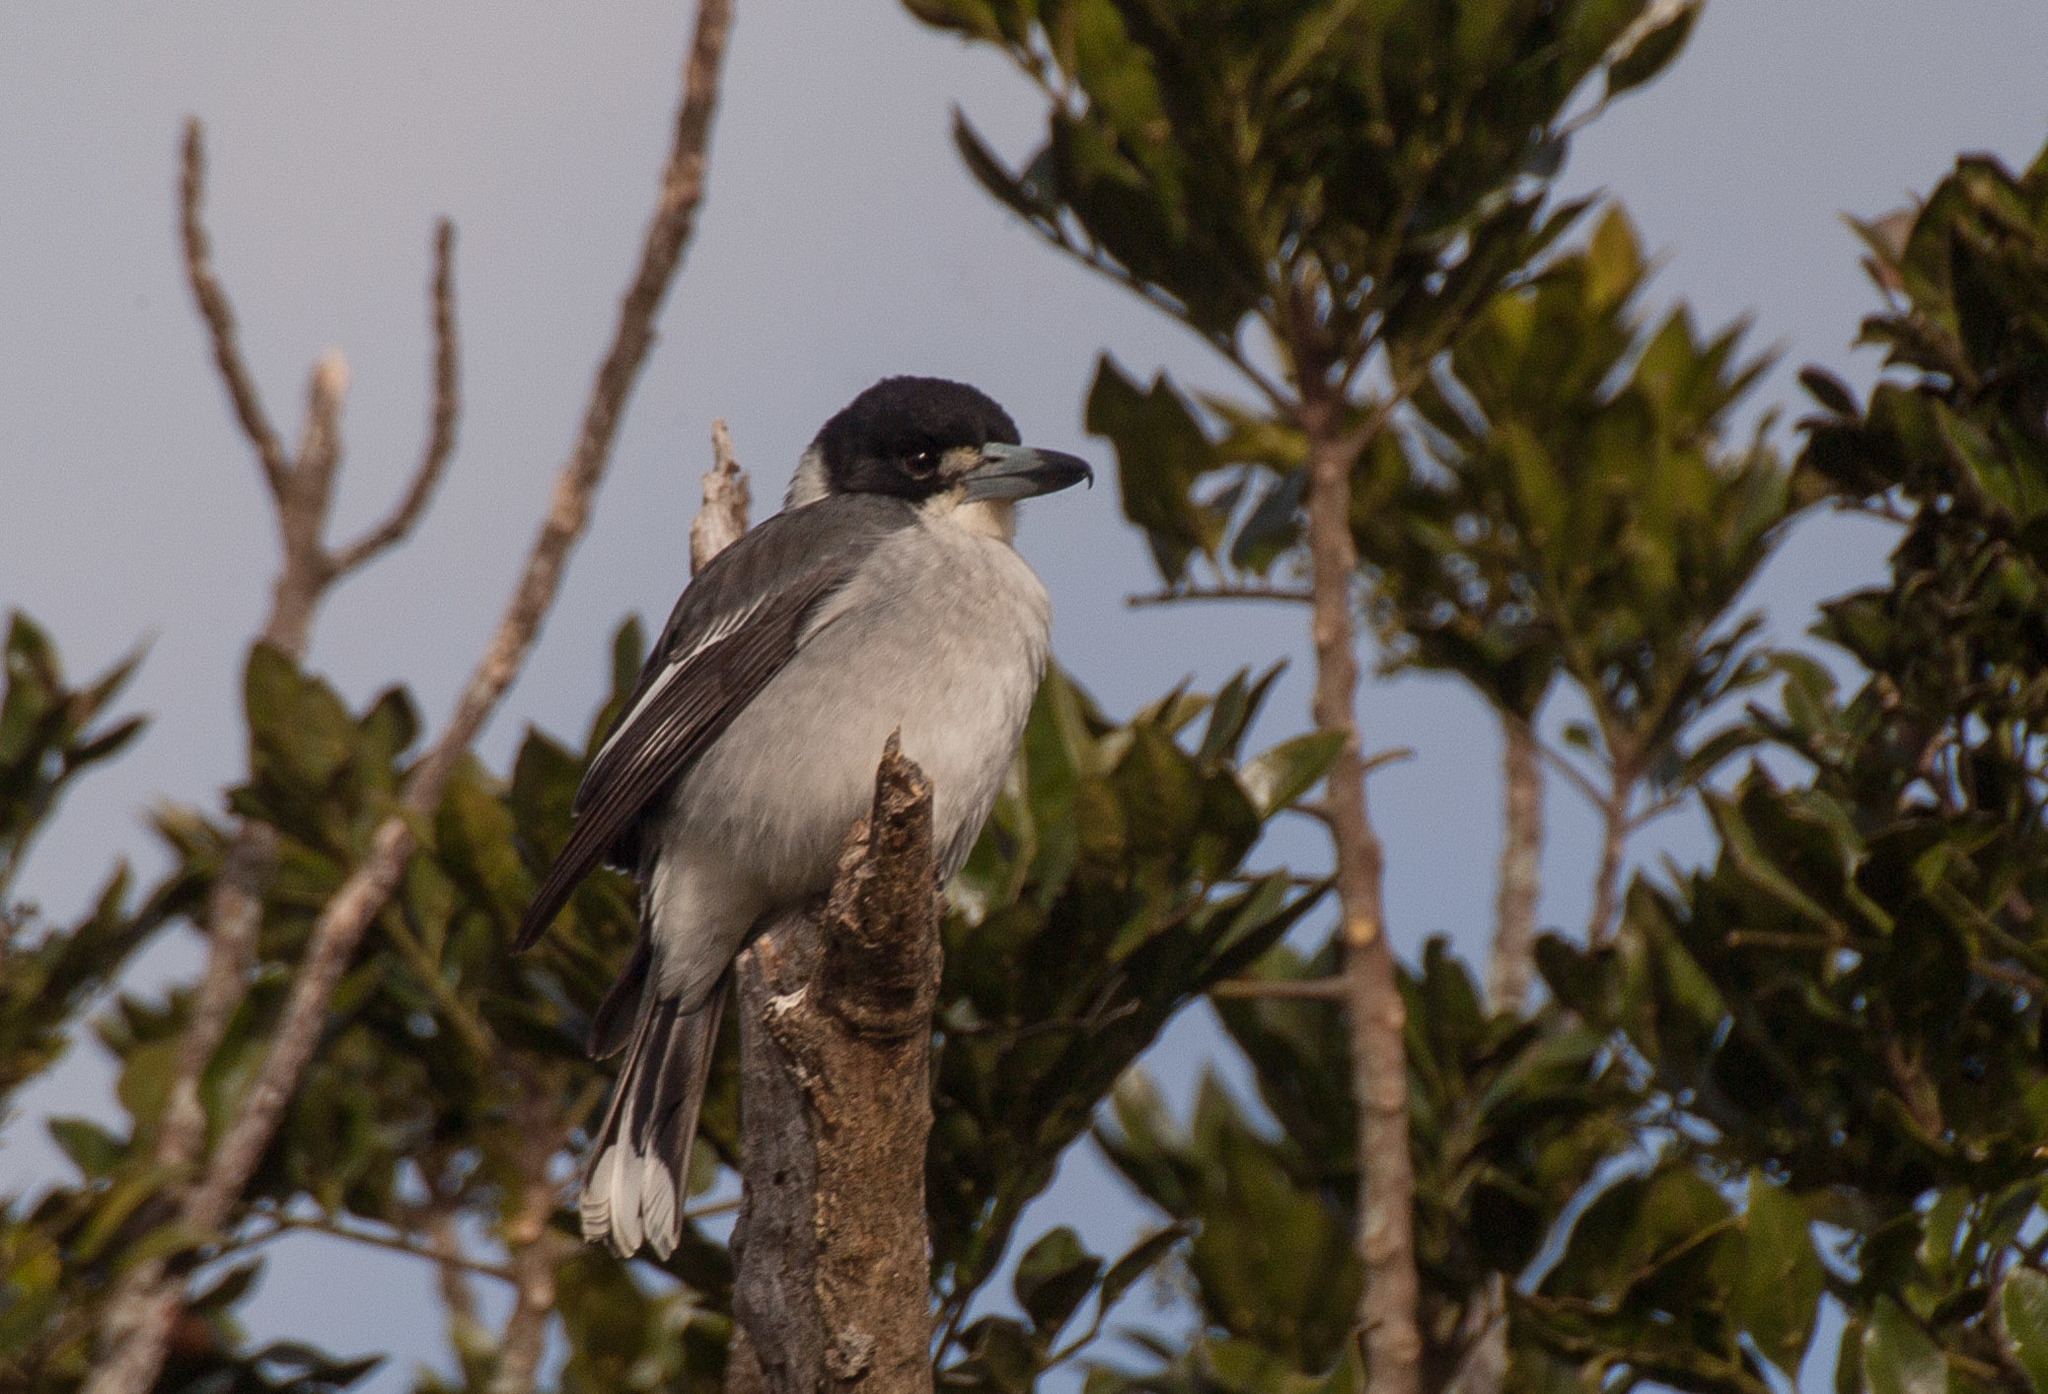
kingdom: Animalia
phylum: Chordata
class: Aves
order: Passeriformes
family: Cracticidae
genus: Cracticus
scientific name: Cracticus torquatus
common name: Grey butcherbird
